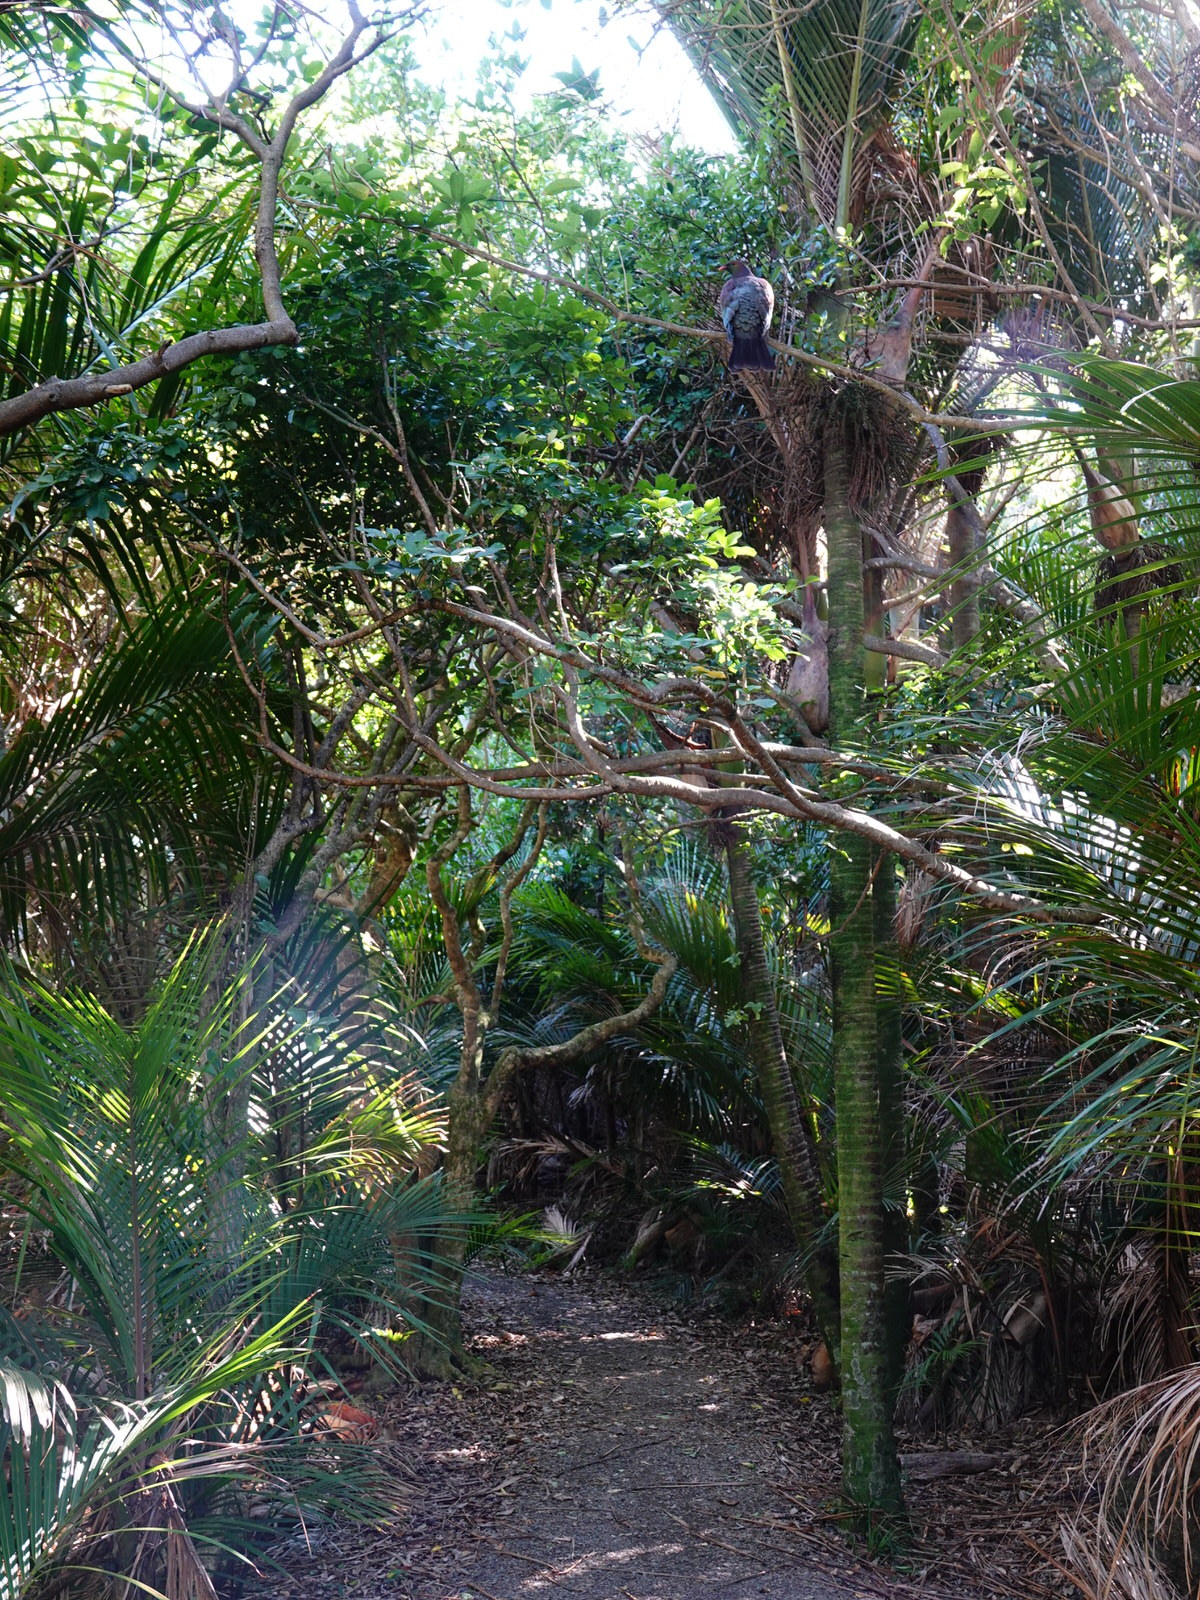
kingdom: Animalia
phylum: Chordata
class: Aves
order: Columbiformes
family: Columbidae
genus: Hemiphaga
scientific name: Hemiphaga novaeseelandiae
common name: New zealand pigeon
